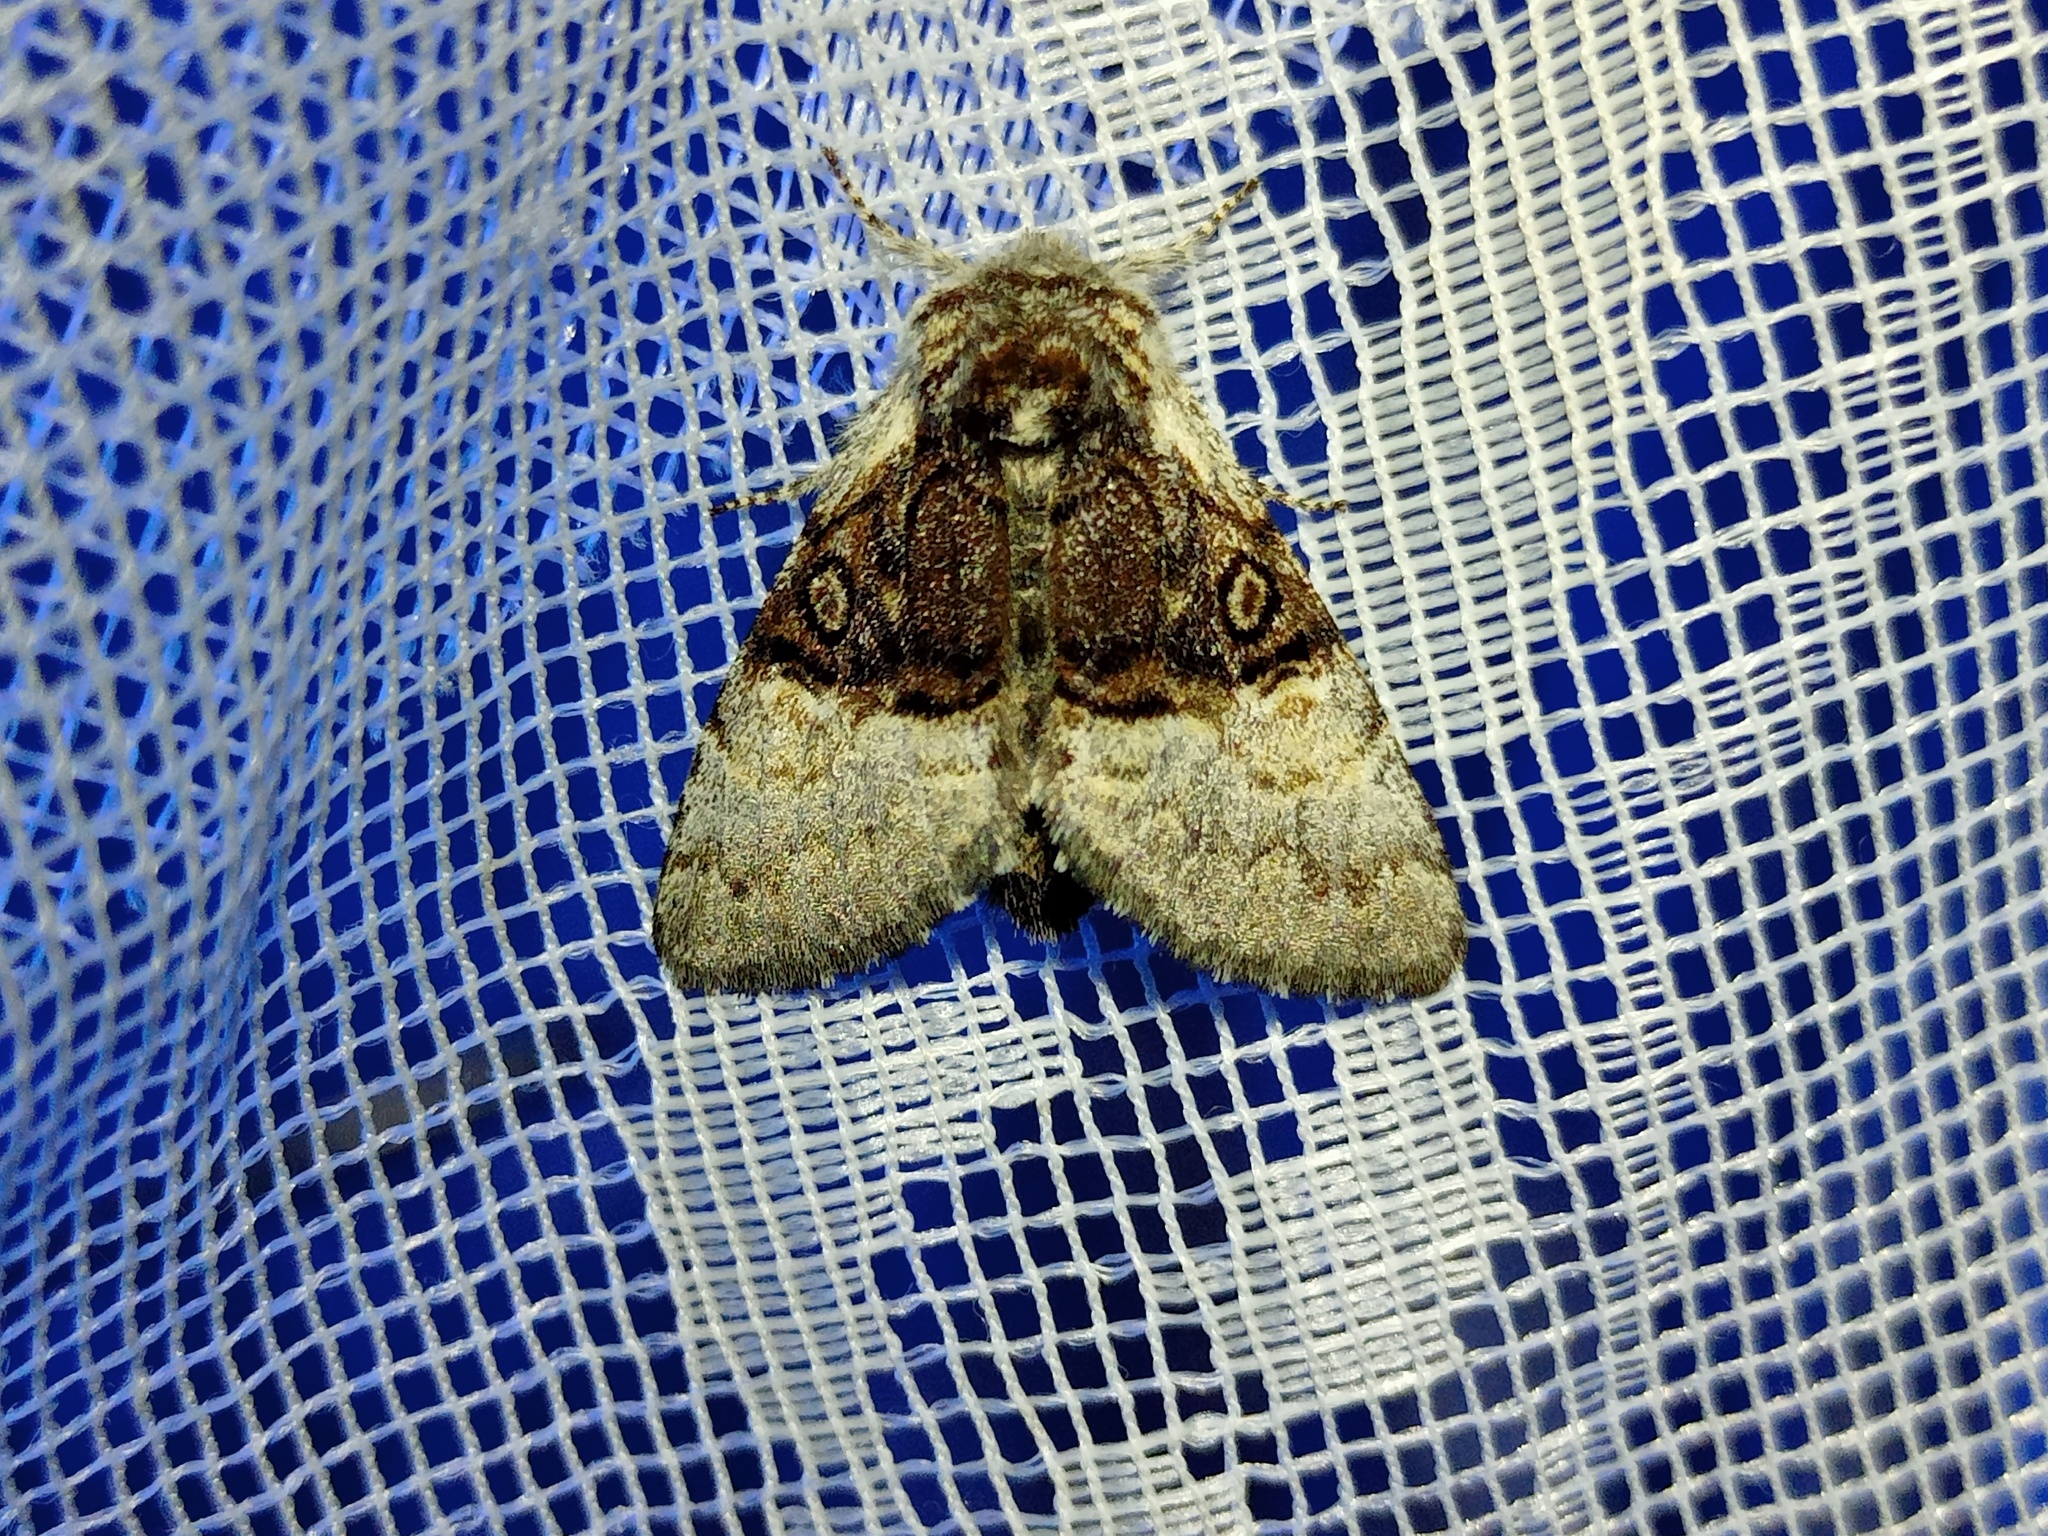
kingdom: Animalia
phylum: Arthropoda
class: Insecta
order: Lepidoptera
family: Noctuidae
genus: Colocasia
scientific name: Colocasia coryli
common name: Nut-tree tussock
